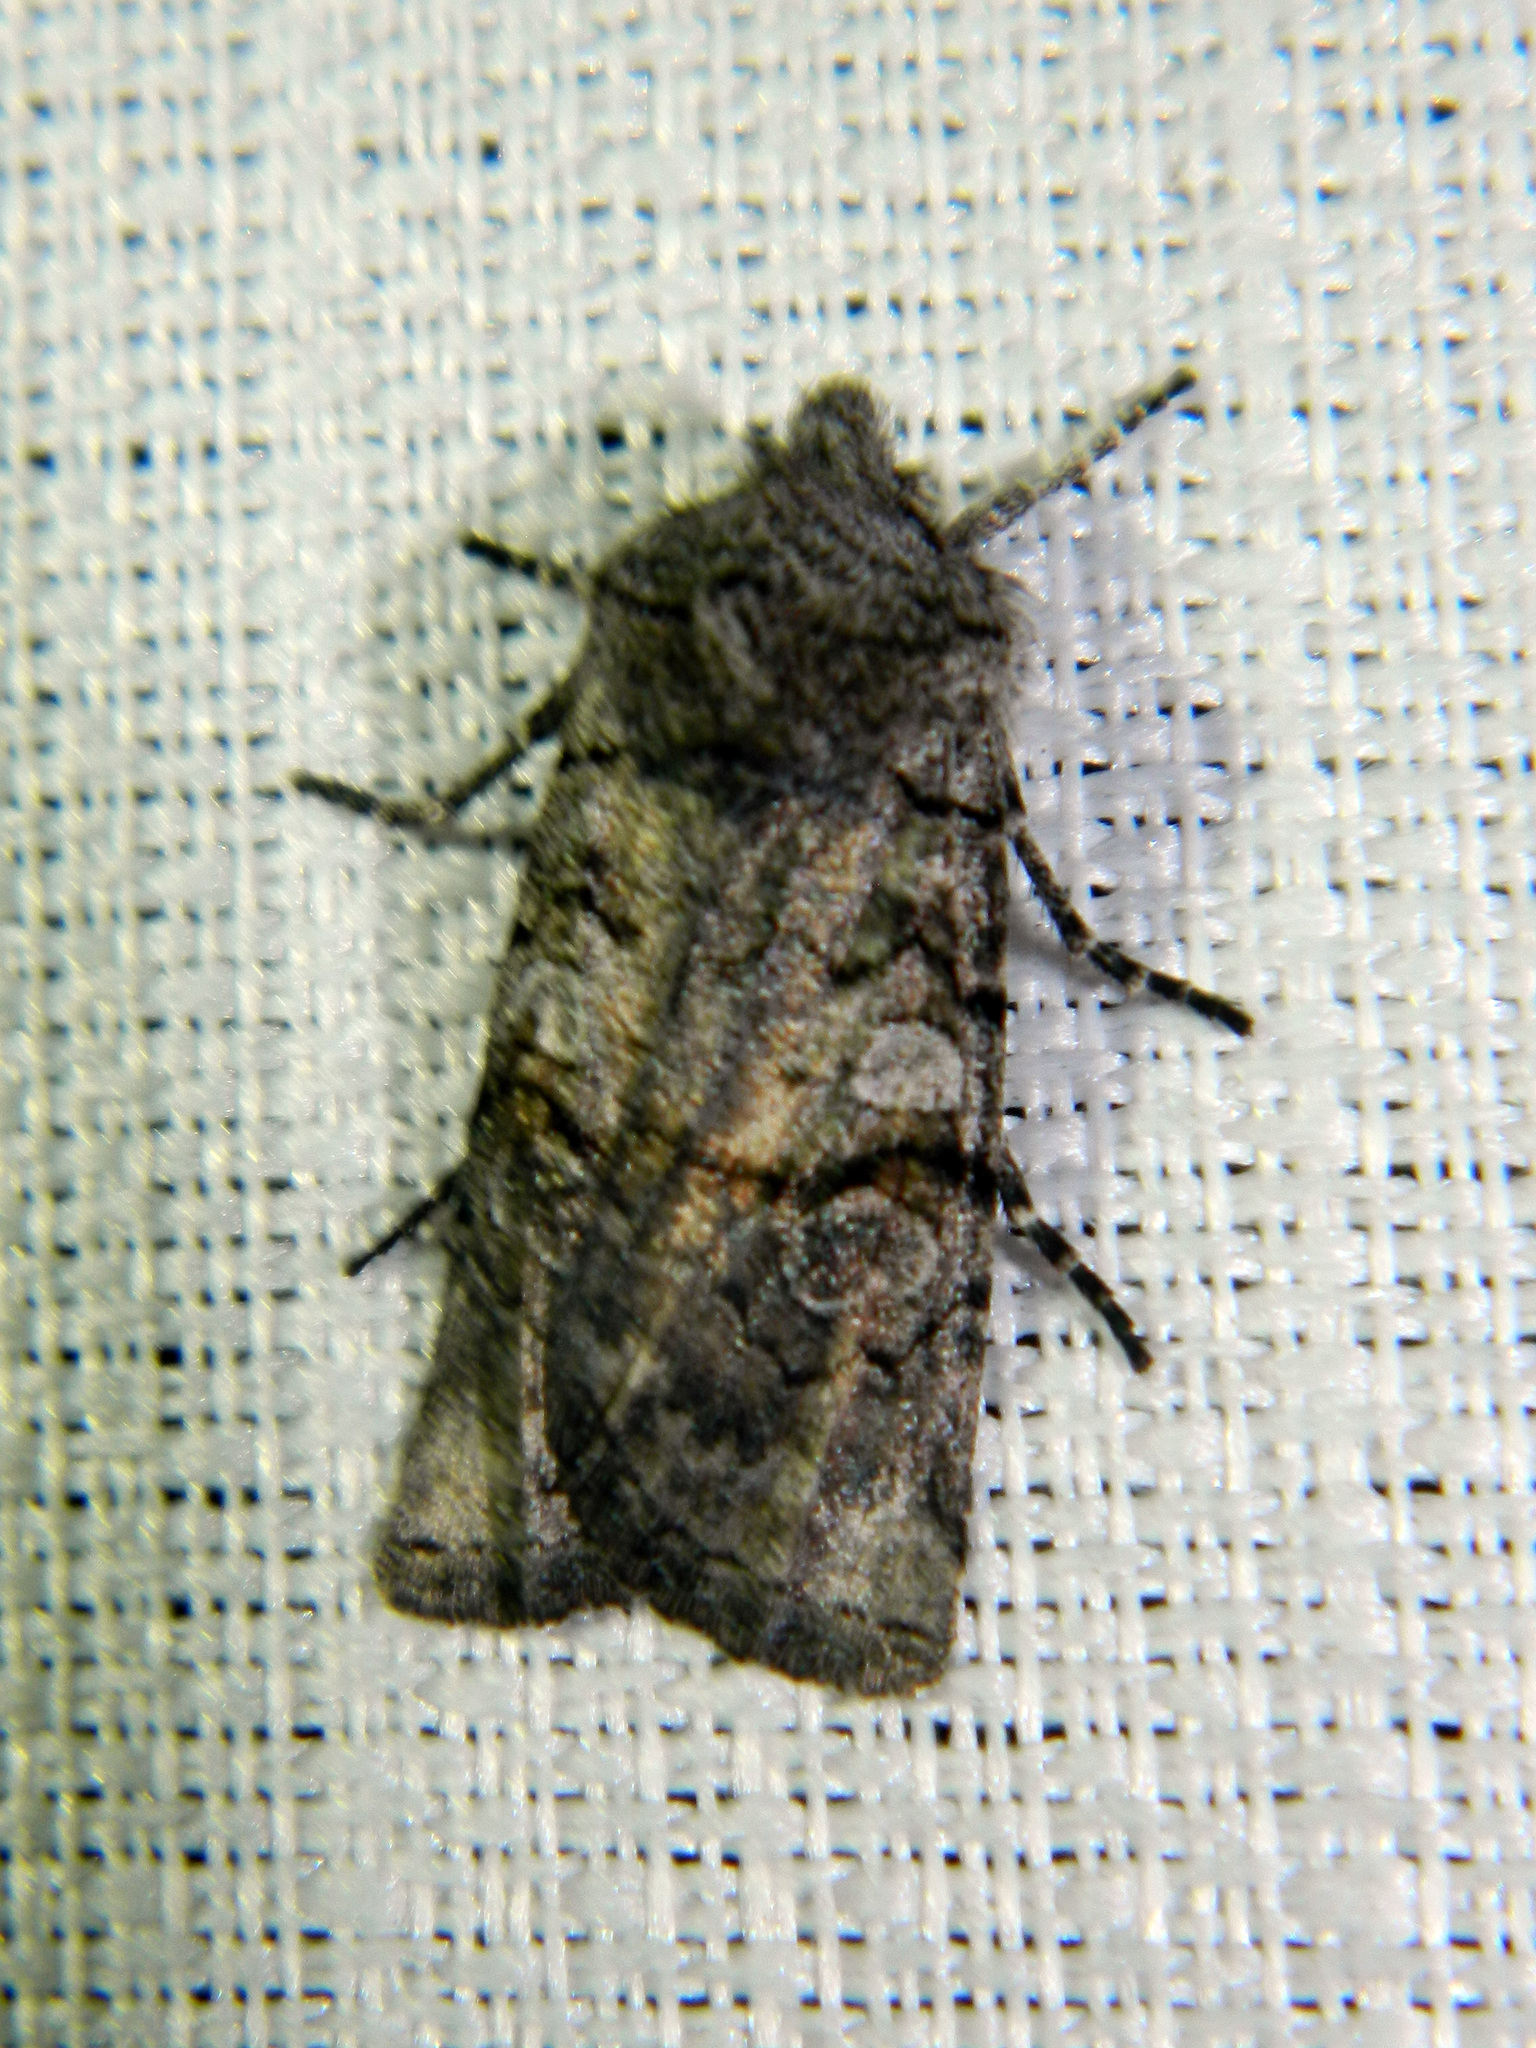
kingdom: Animalia
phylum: Arthropoda
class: Insecta
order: Lepidoptera
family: Noctuidae
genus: Litholomia
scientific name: Litholomia napaea
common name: False pinion moth
